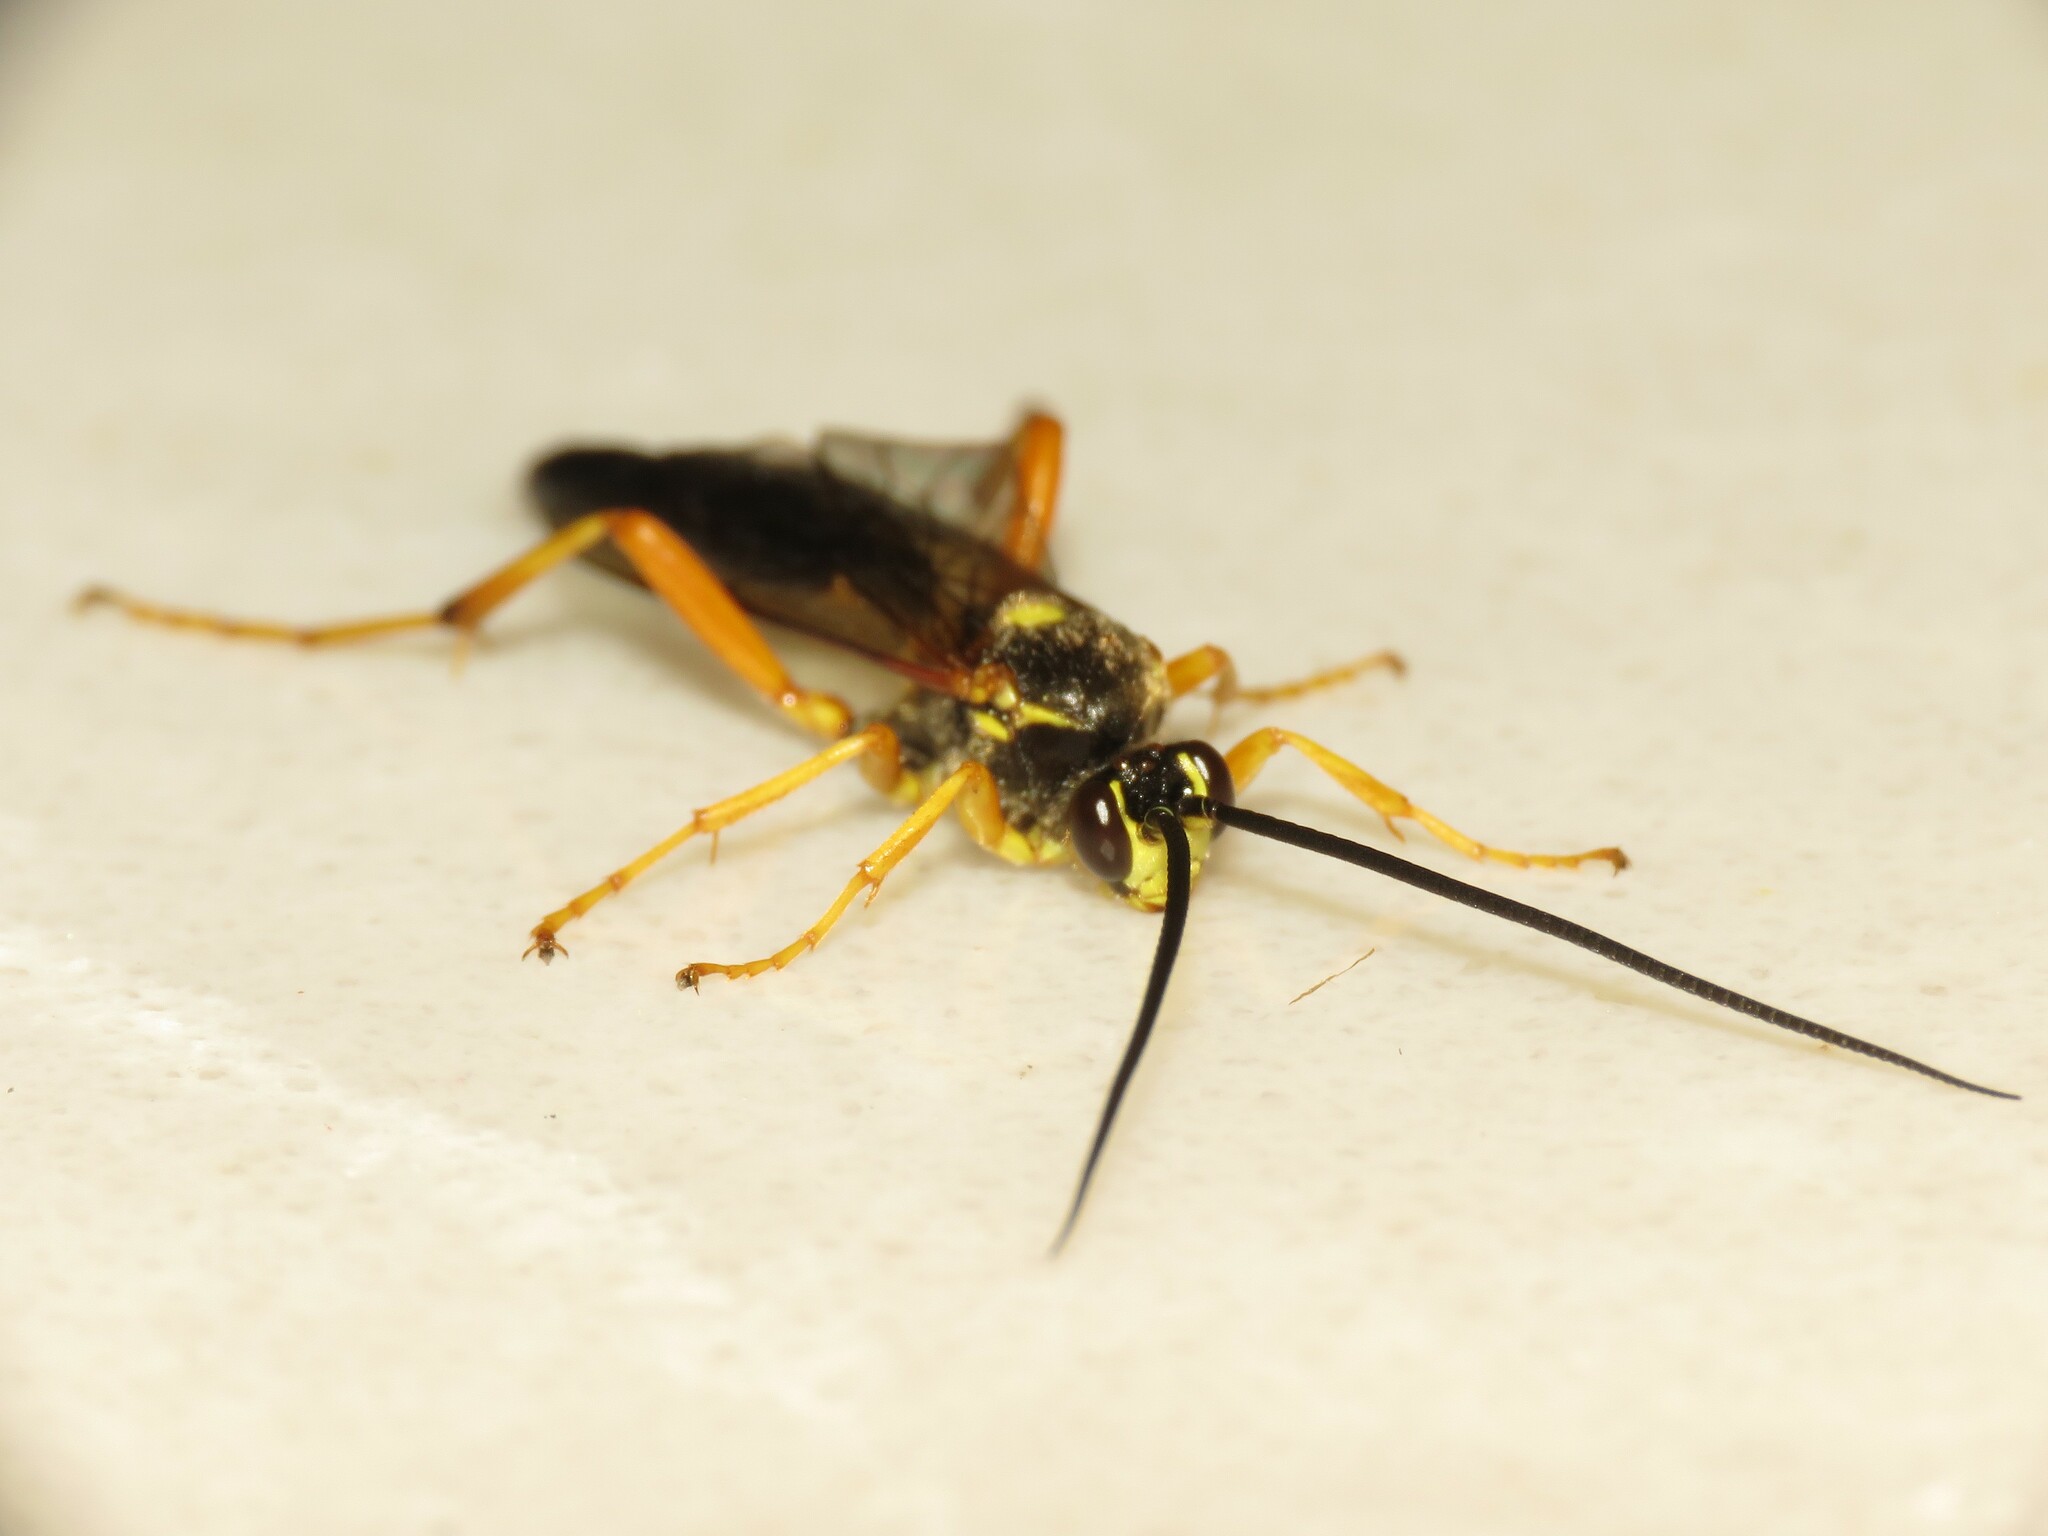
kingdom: Animalia
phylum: Arthropoda
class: Insecta
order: Hymenoptera
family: Ichneumonidae
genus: Limerodops
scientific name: Limerodops belangeri
